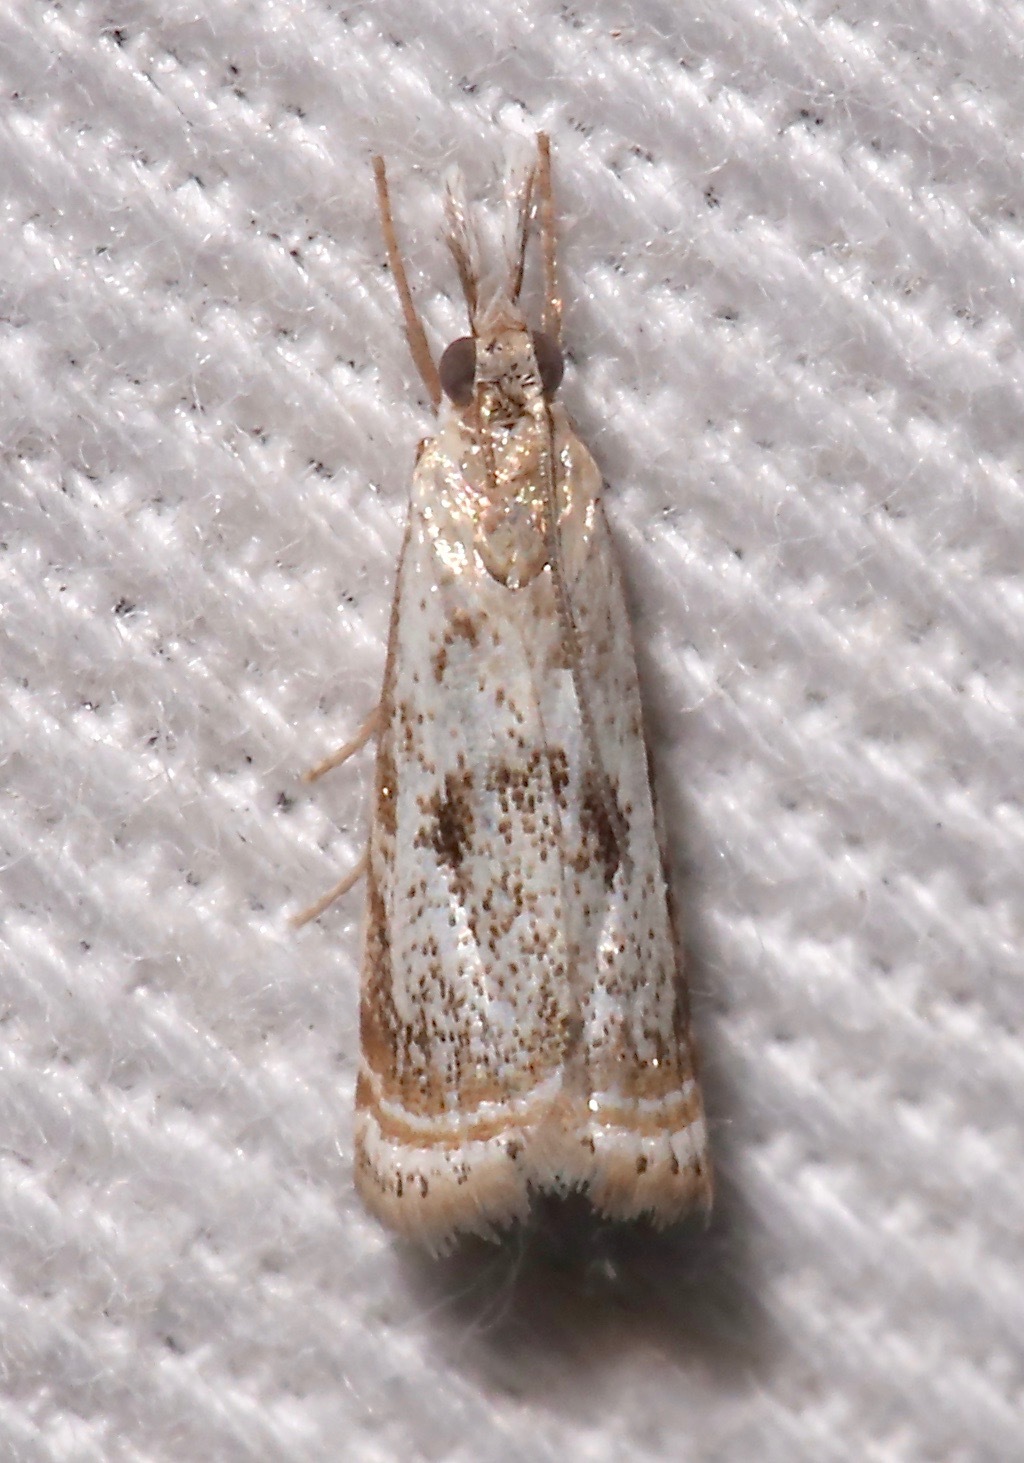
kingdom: Animalia
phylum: Arthropoda
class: Insecta
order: Lepidoptera
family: Crambidae
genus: Microcrambus
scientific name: Microcrambus elegans
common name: Elegant grass-veneer
